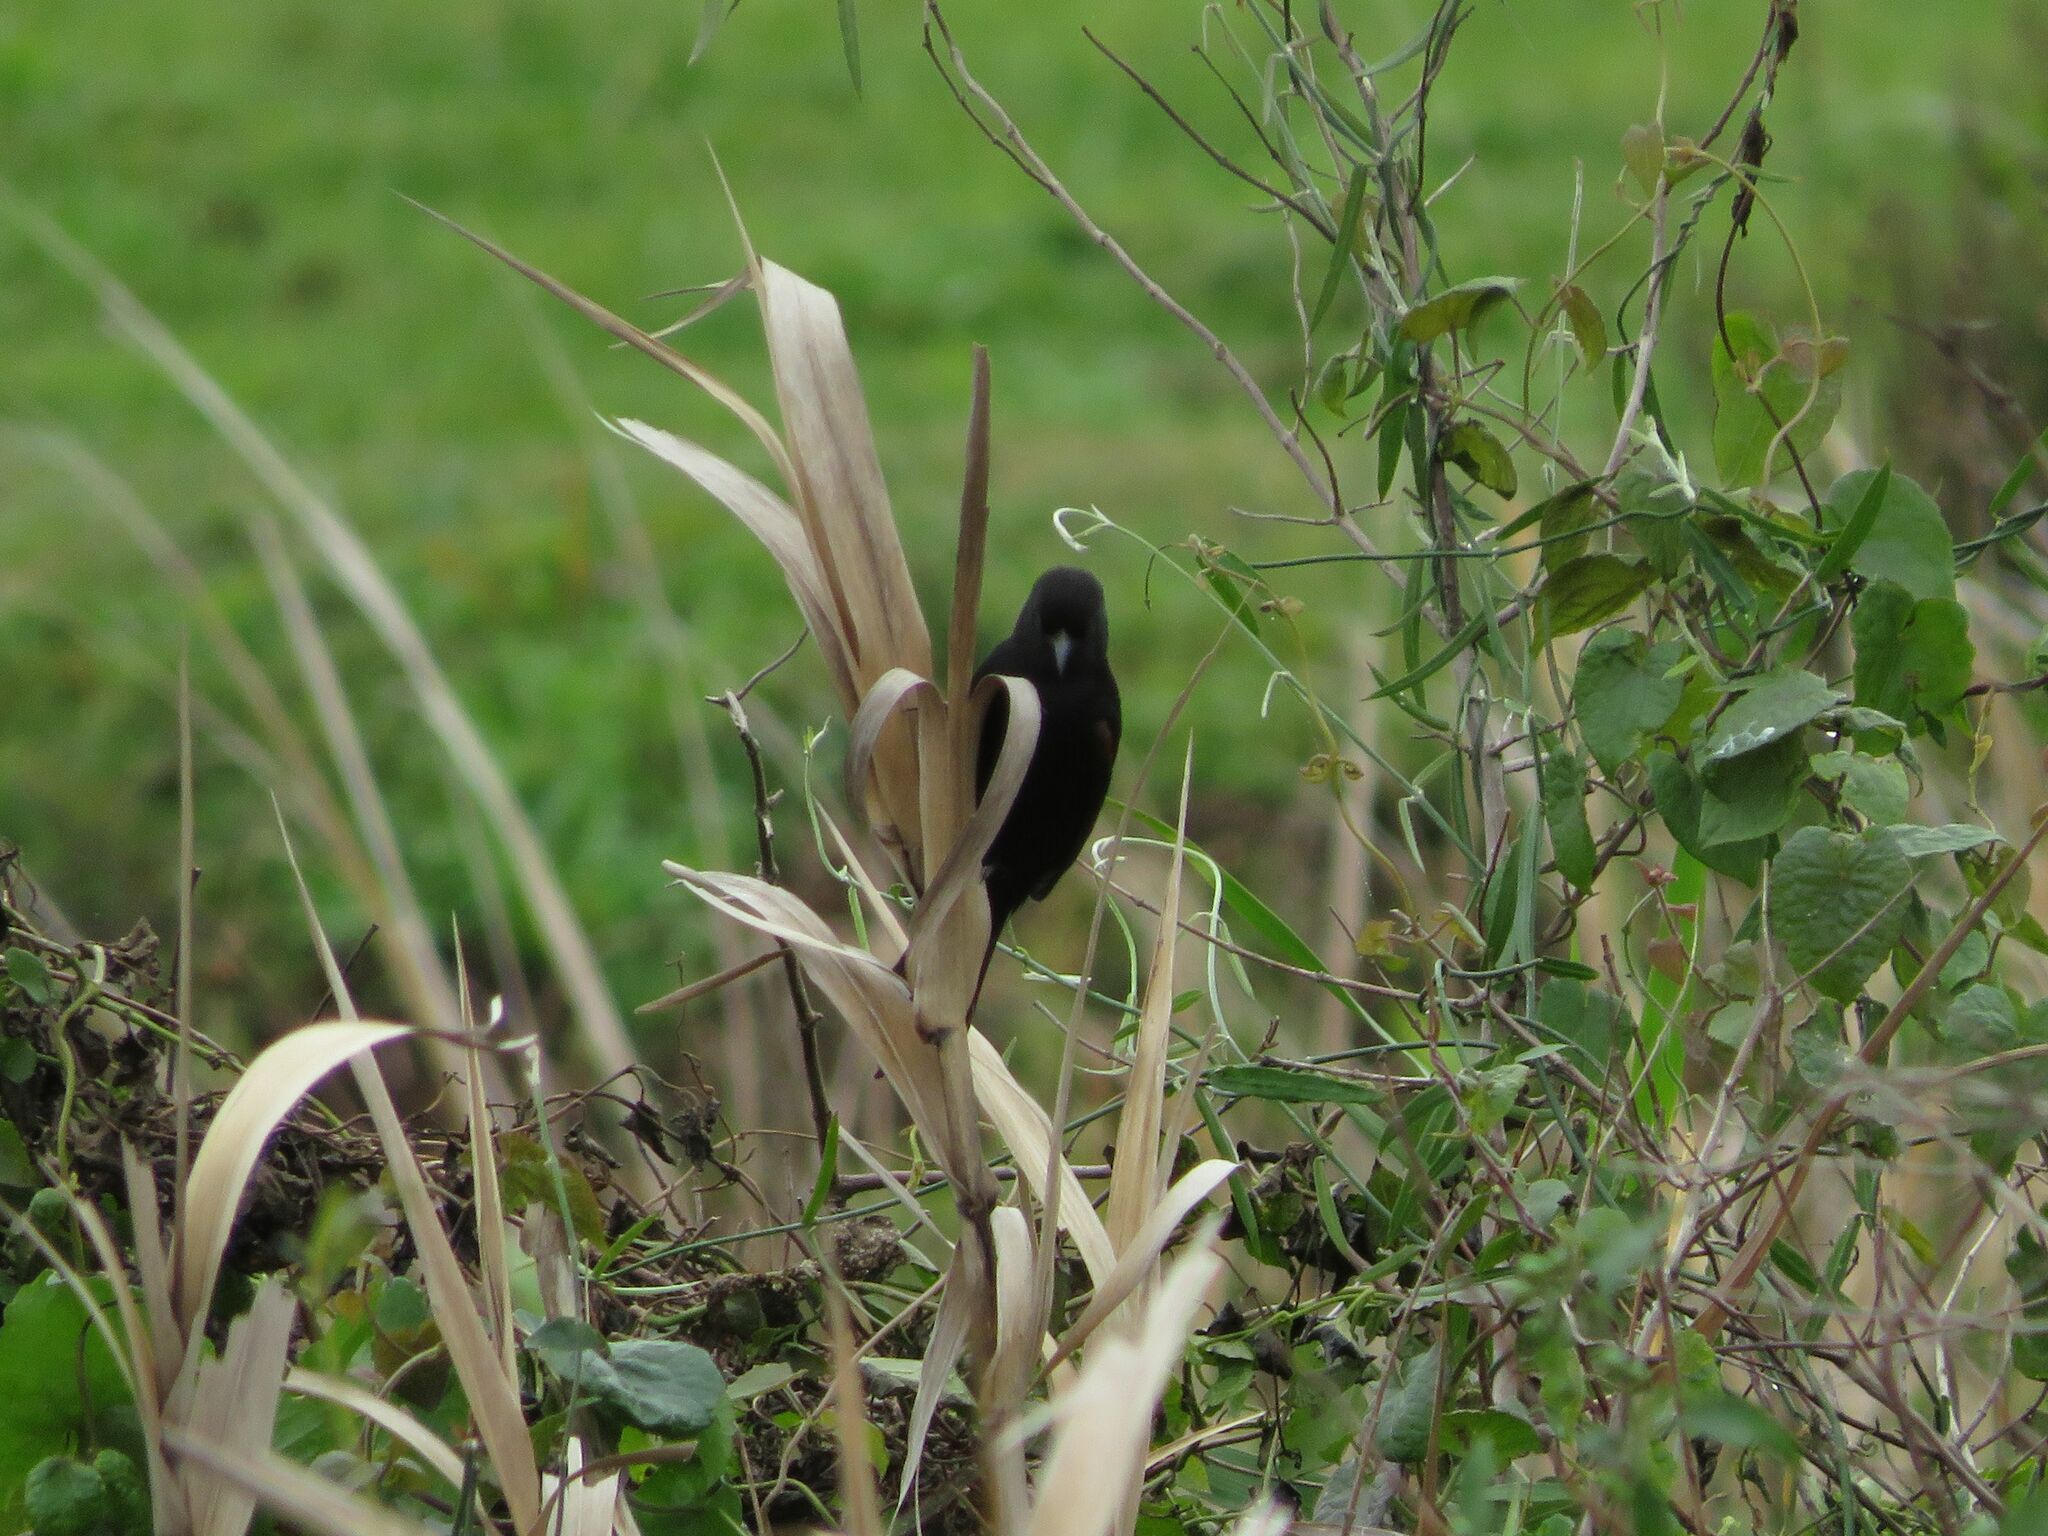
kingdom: Animalia
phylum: Chordata
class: Aves
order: Passeriformes
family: Icteridae
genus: Icterus
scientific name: Icterus cayanensis
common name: Epaulet oriole
